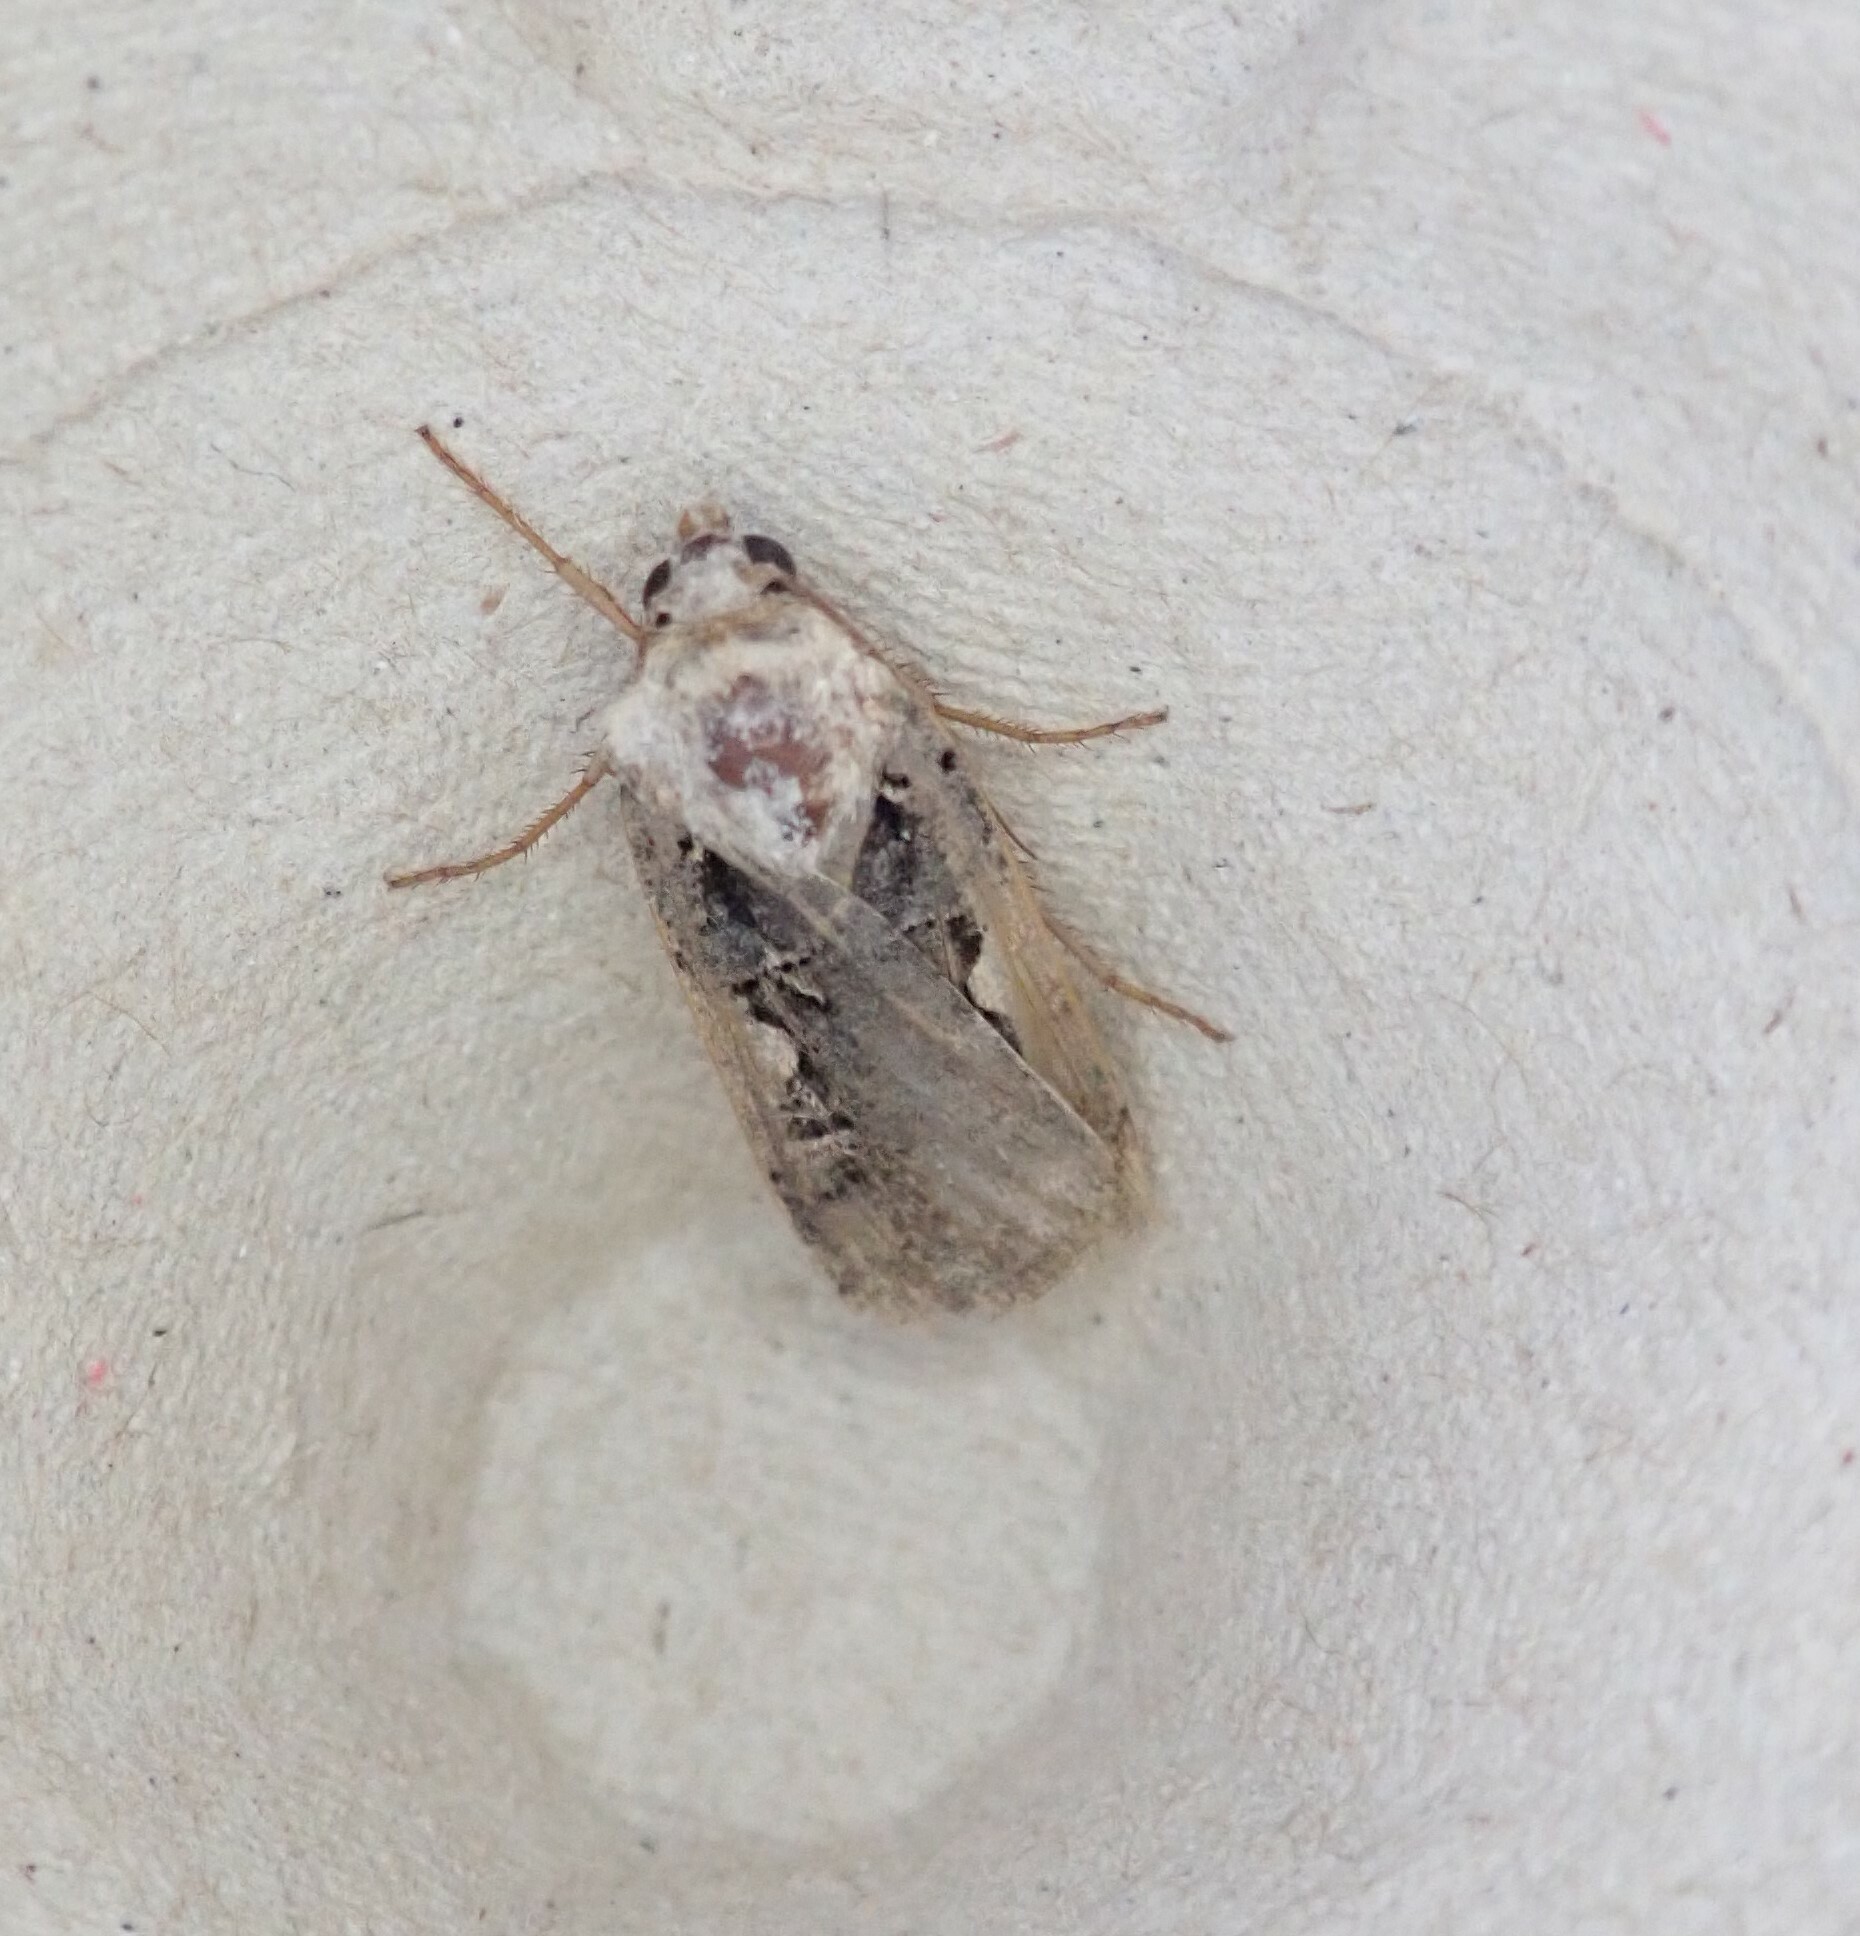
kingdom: Animalia
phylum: Arthropoda
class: Insecta
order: Lepidoptera
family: Noctuidae
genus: Xestia
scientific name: Xestia c-nigrum
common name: Setaceous hebrew character
